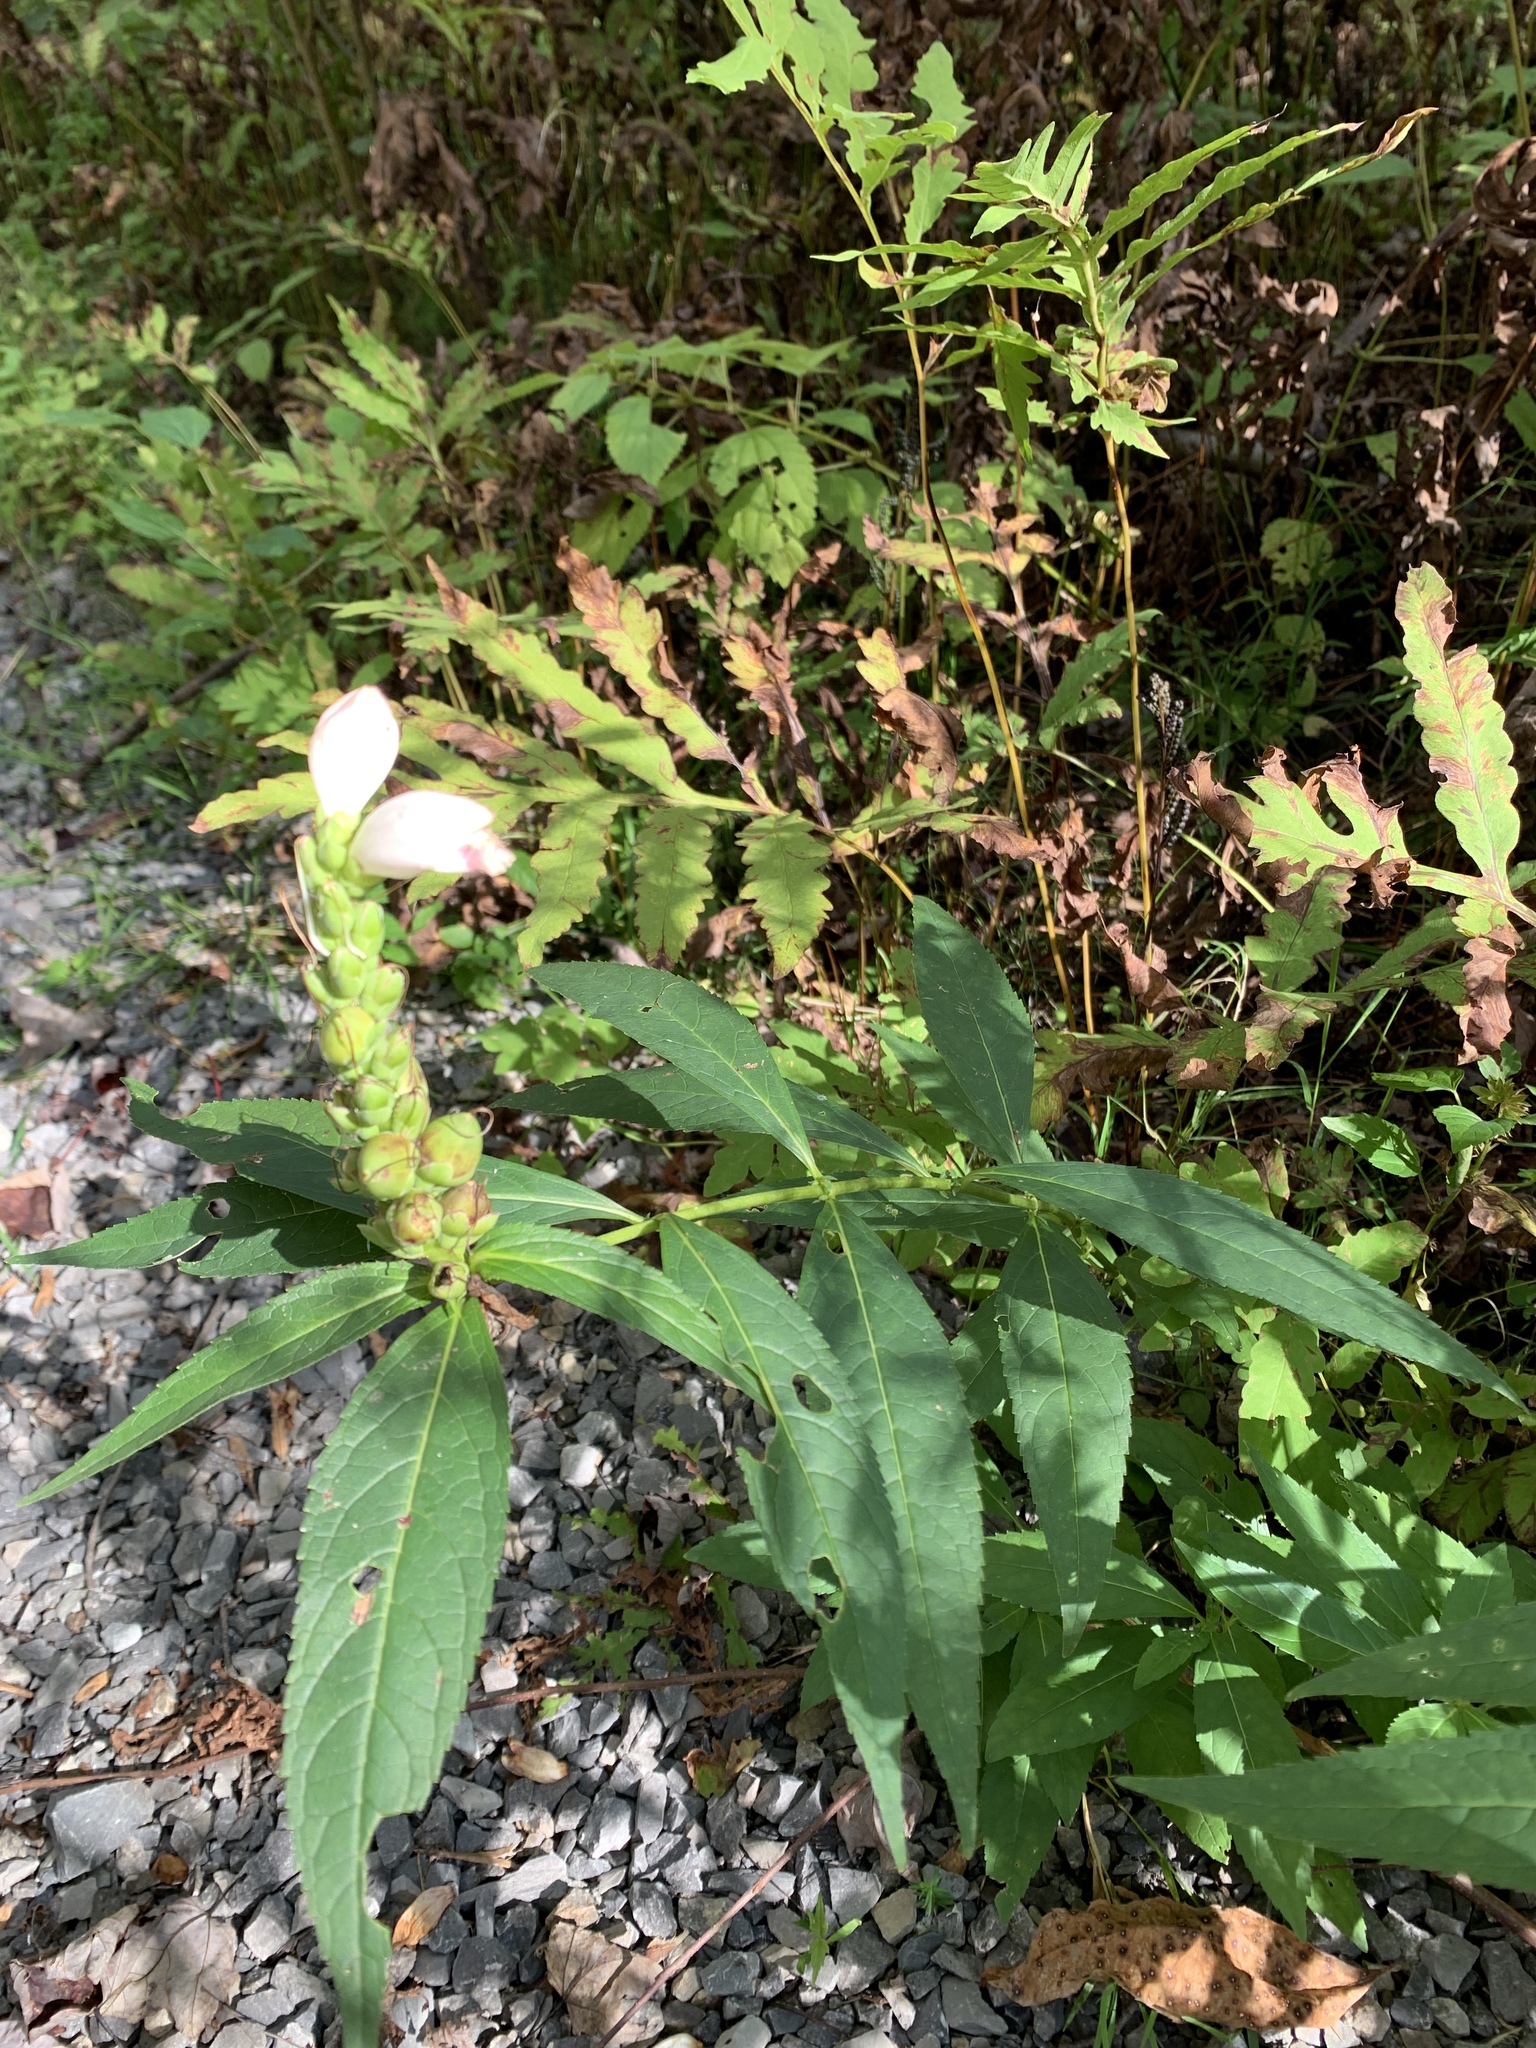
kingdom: Plantae
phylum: Tracheophyta
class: Magnoliopsida
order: Lamiales
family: Plantaginaceae
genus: Chelone
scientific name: Chelone glabra
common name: Snakehead
